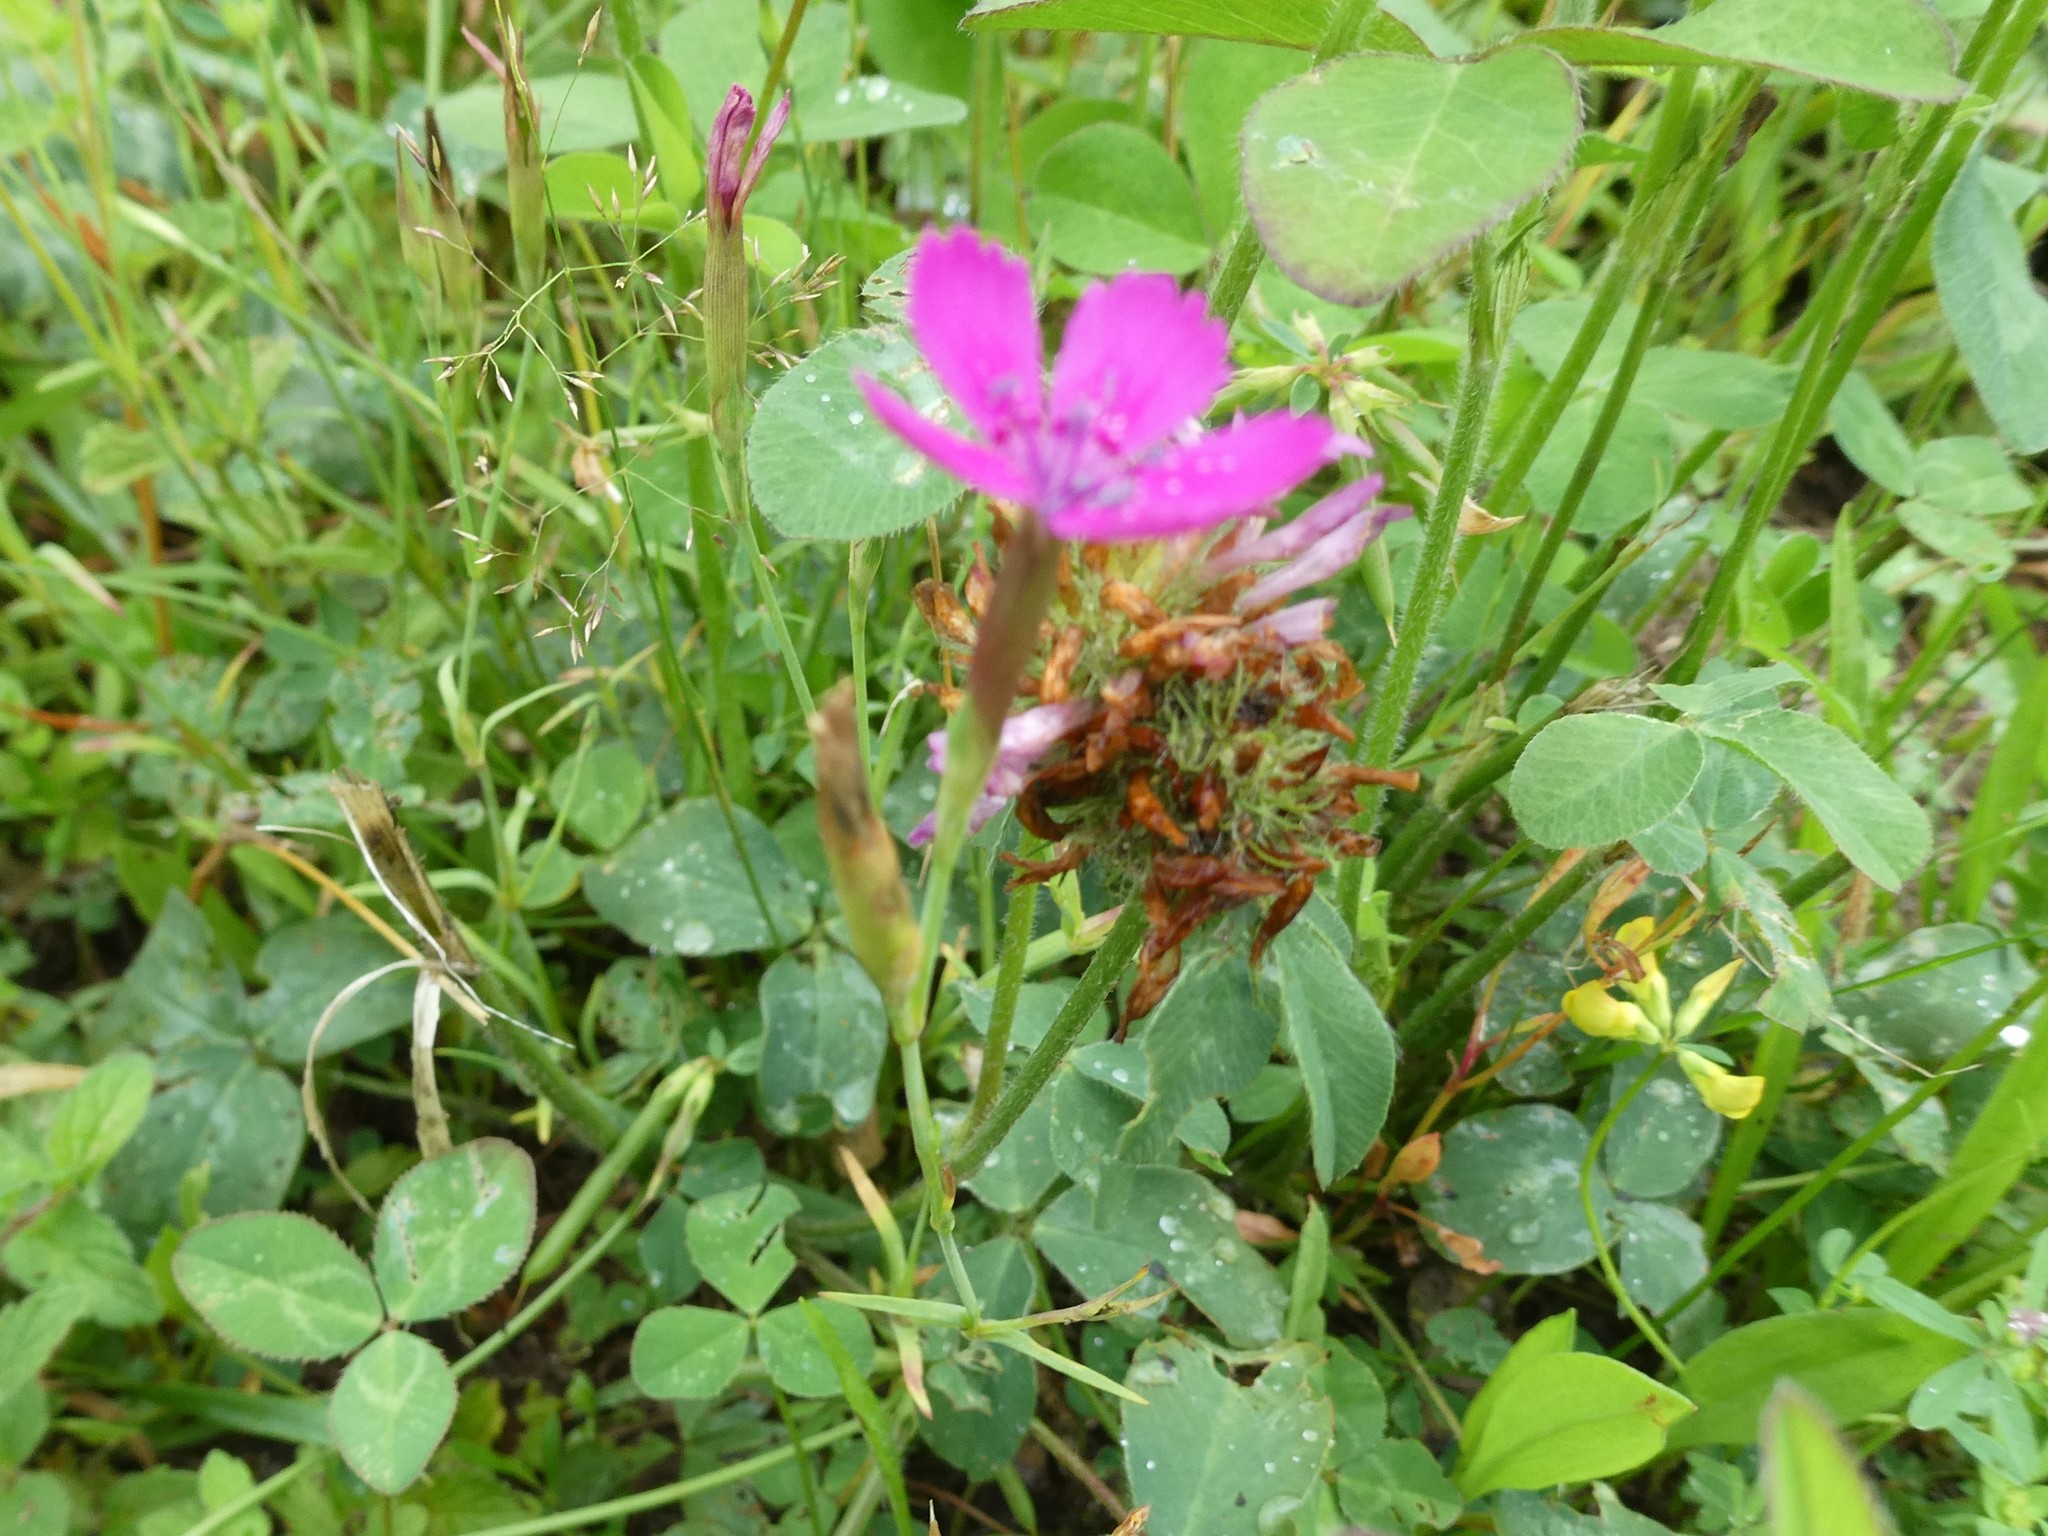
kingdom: Plantae
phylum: Tracheophyta
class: Magnoliopsida
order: Caryophyllales
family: Caryophyllaceae
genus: Dianthus
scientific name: Dianthus deltoides
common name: Maiden pink
